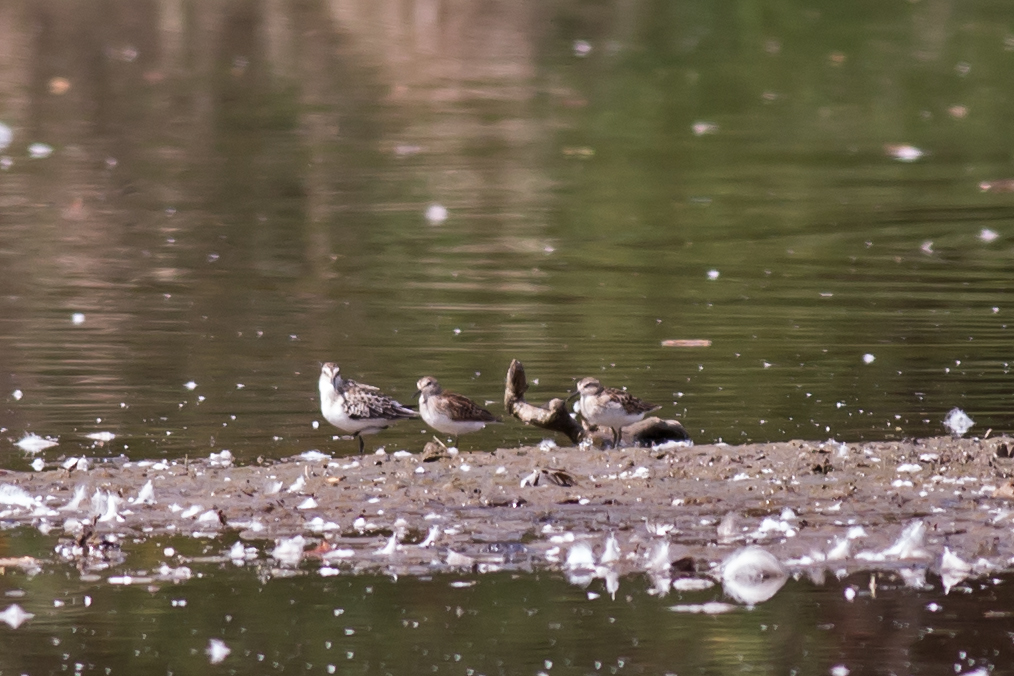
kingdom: Animalia
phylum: Chordata
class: Aves
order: Charadriiformes
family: Scolopacidae
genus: Calidris
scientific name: Calidris minutilla
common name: Least sandpiper
